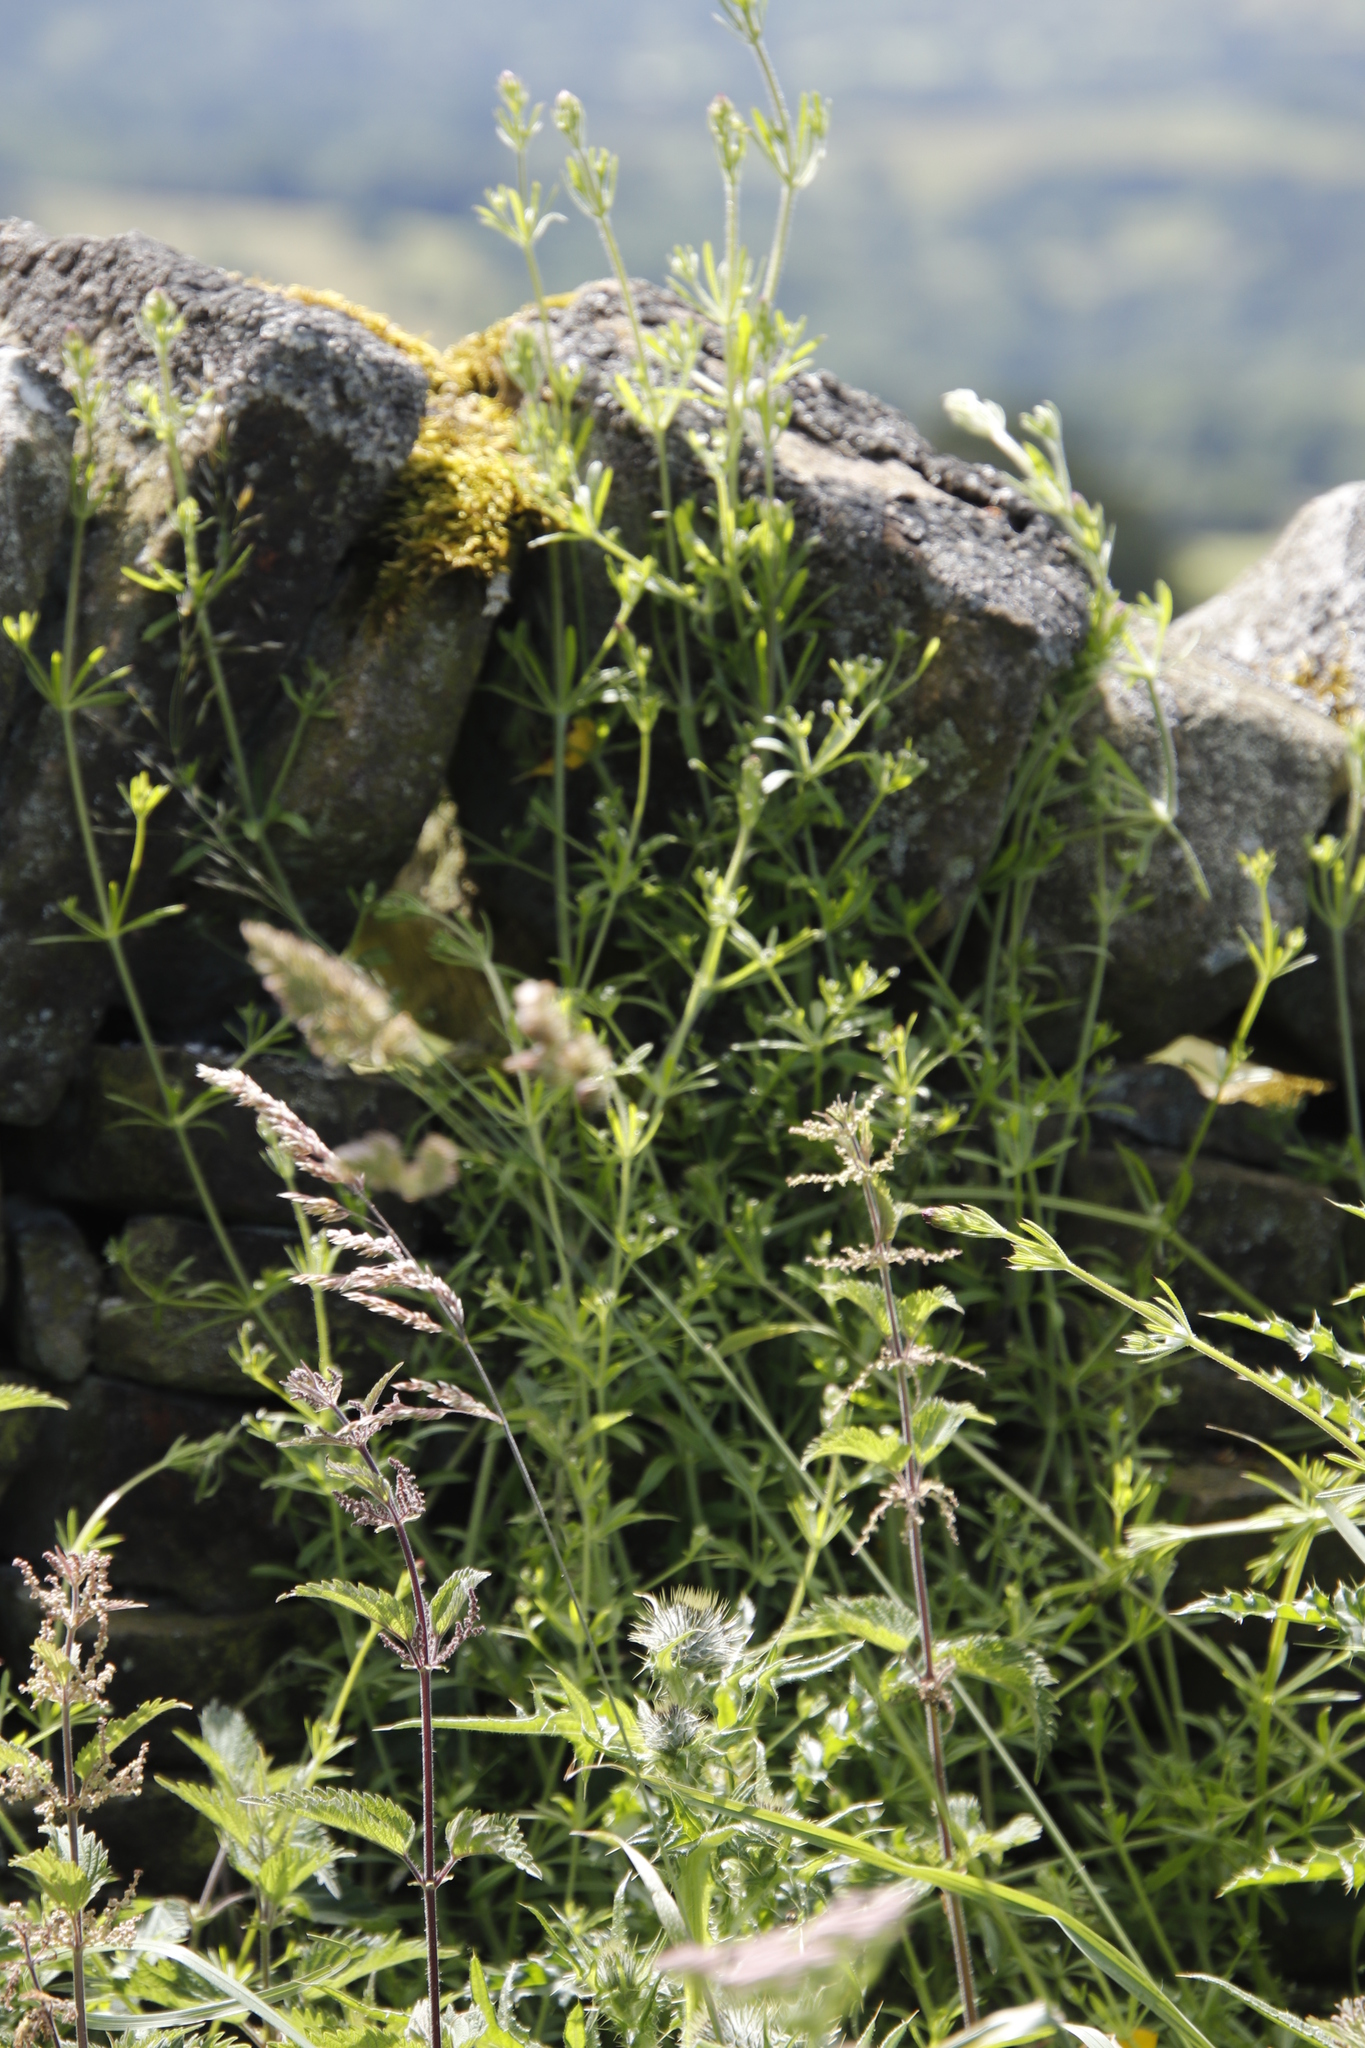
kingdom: Plantae
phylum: Tracheophyta
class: Magnoliopsida
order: Gentianales
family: Rubiaceae
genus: Galium
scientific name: Galium aparine
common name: Cleavers
